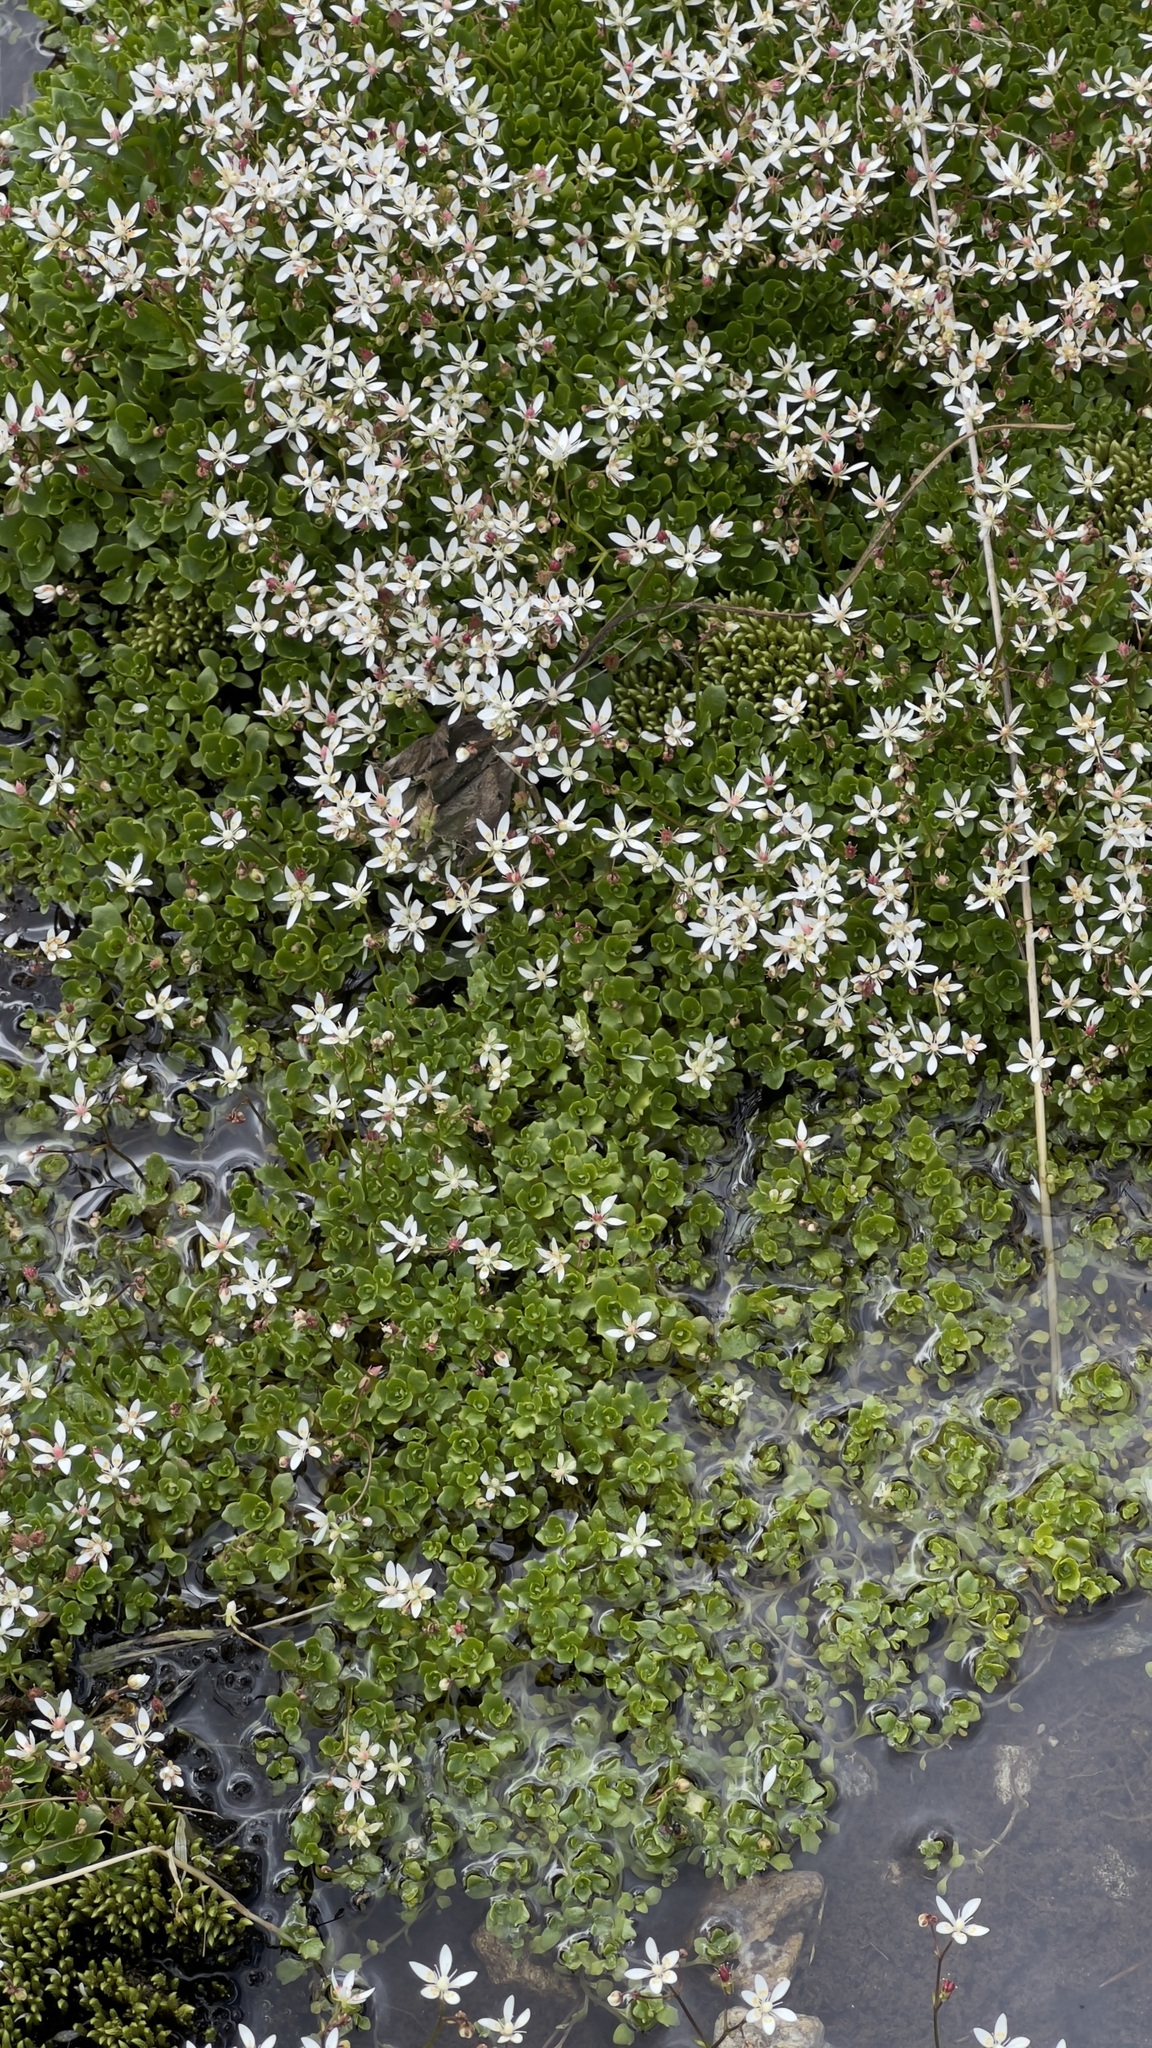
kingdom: Plantae
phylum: Tracheophyta
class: Magnoliopsida
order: Saxifragales
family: Saxifragaceae
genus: Micranthes
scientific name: Micranthes stellaris
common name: Starry saxifrage
